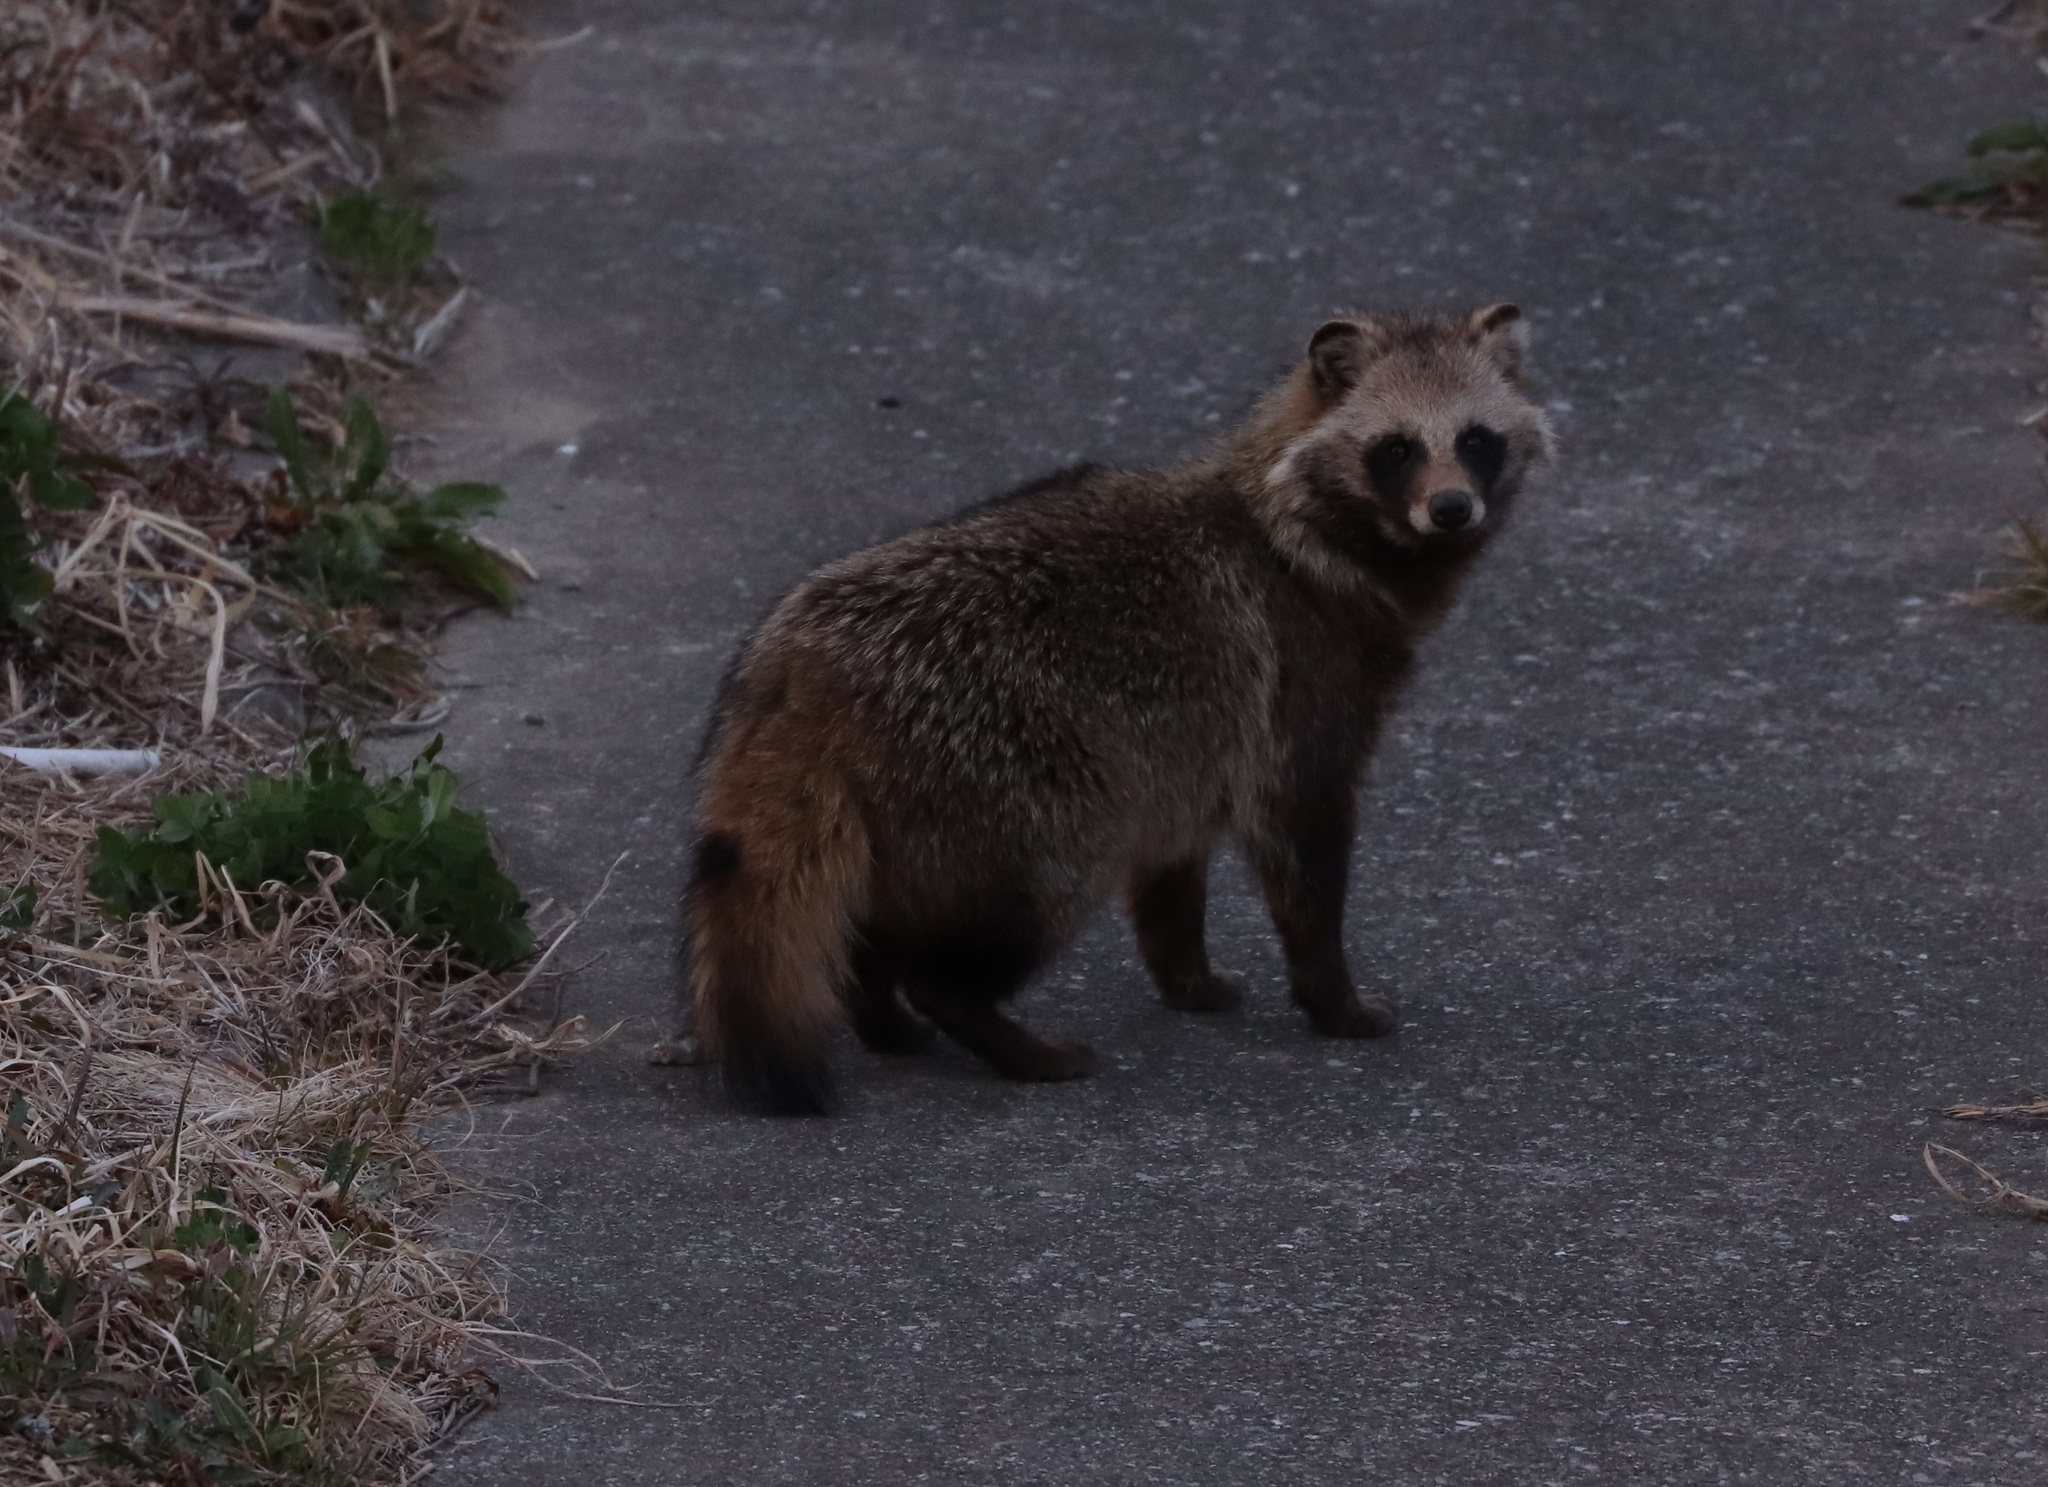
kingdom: Animalia
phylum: Chordata
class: Mammalia
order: Carnivora
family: Canidae
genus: Nyctereutes
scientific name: Nyctereutes
